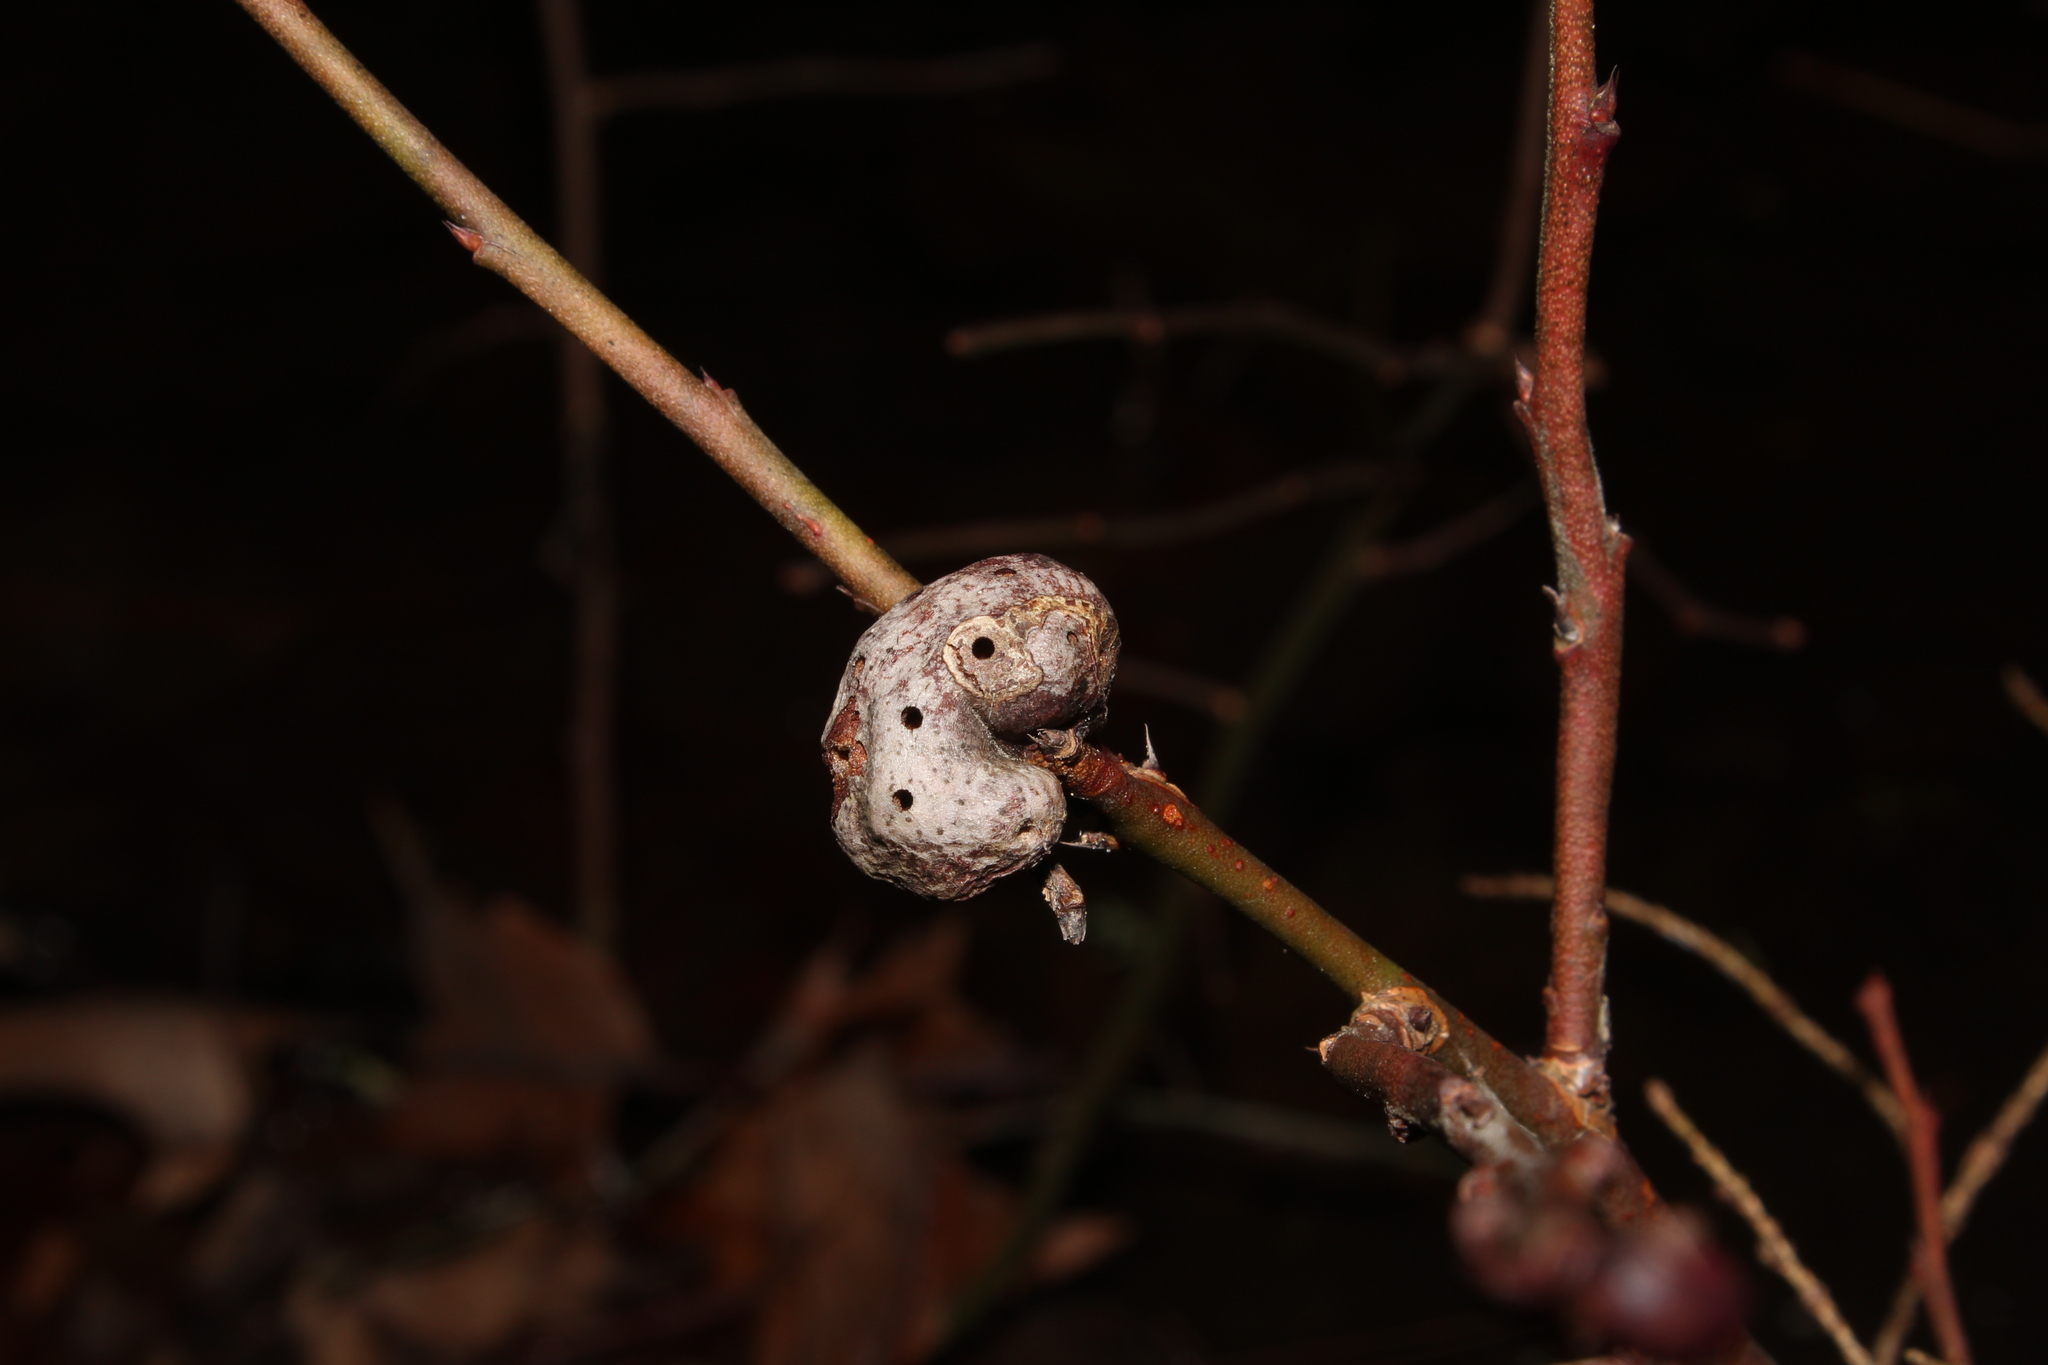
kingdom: Animalia
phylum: Arthropoda
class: Insecta
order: Hymenoptera
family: Pteromalidae
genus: Hemadas
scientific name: Hemadas nubilipennis
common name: Blueberry stem gall wasp
